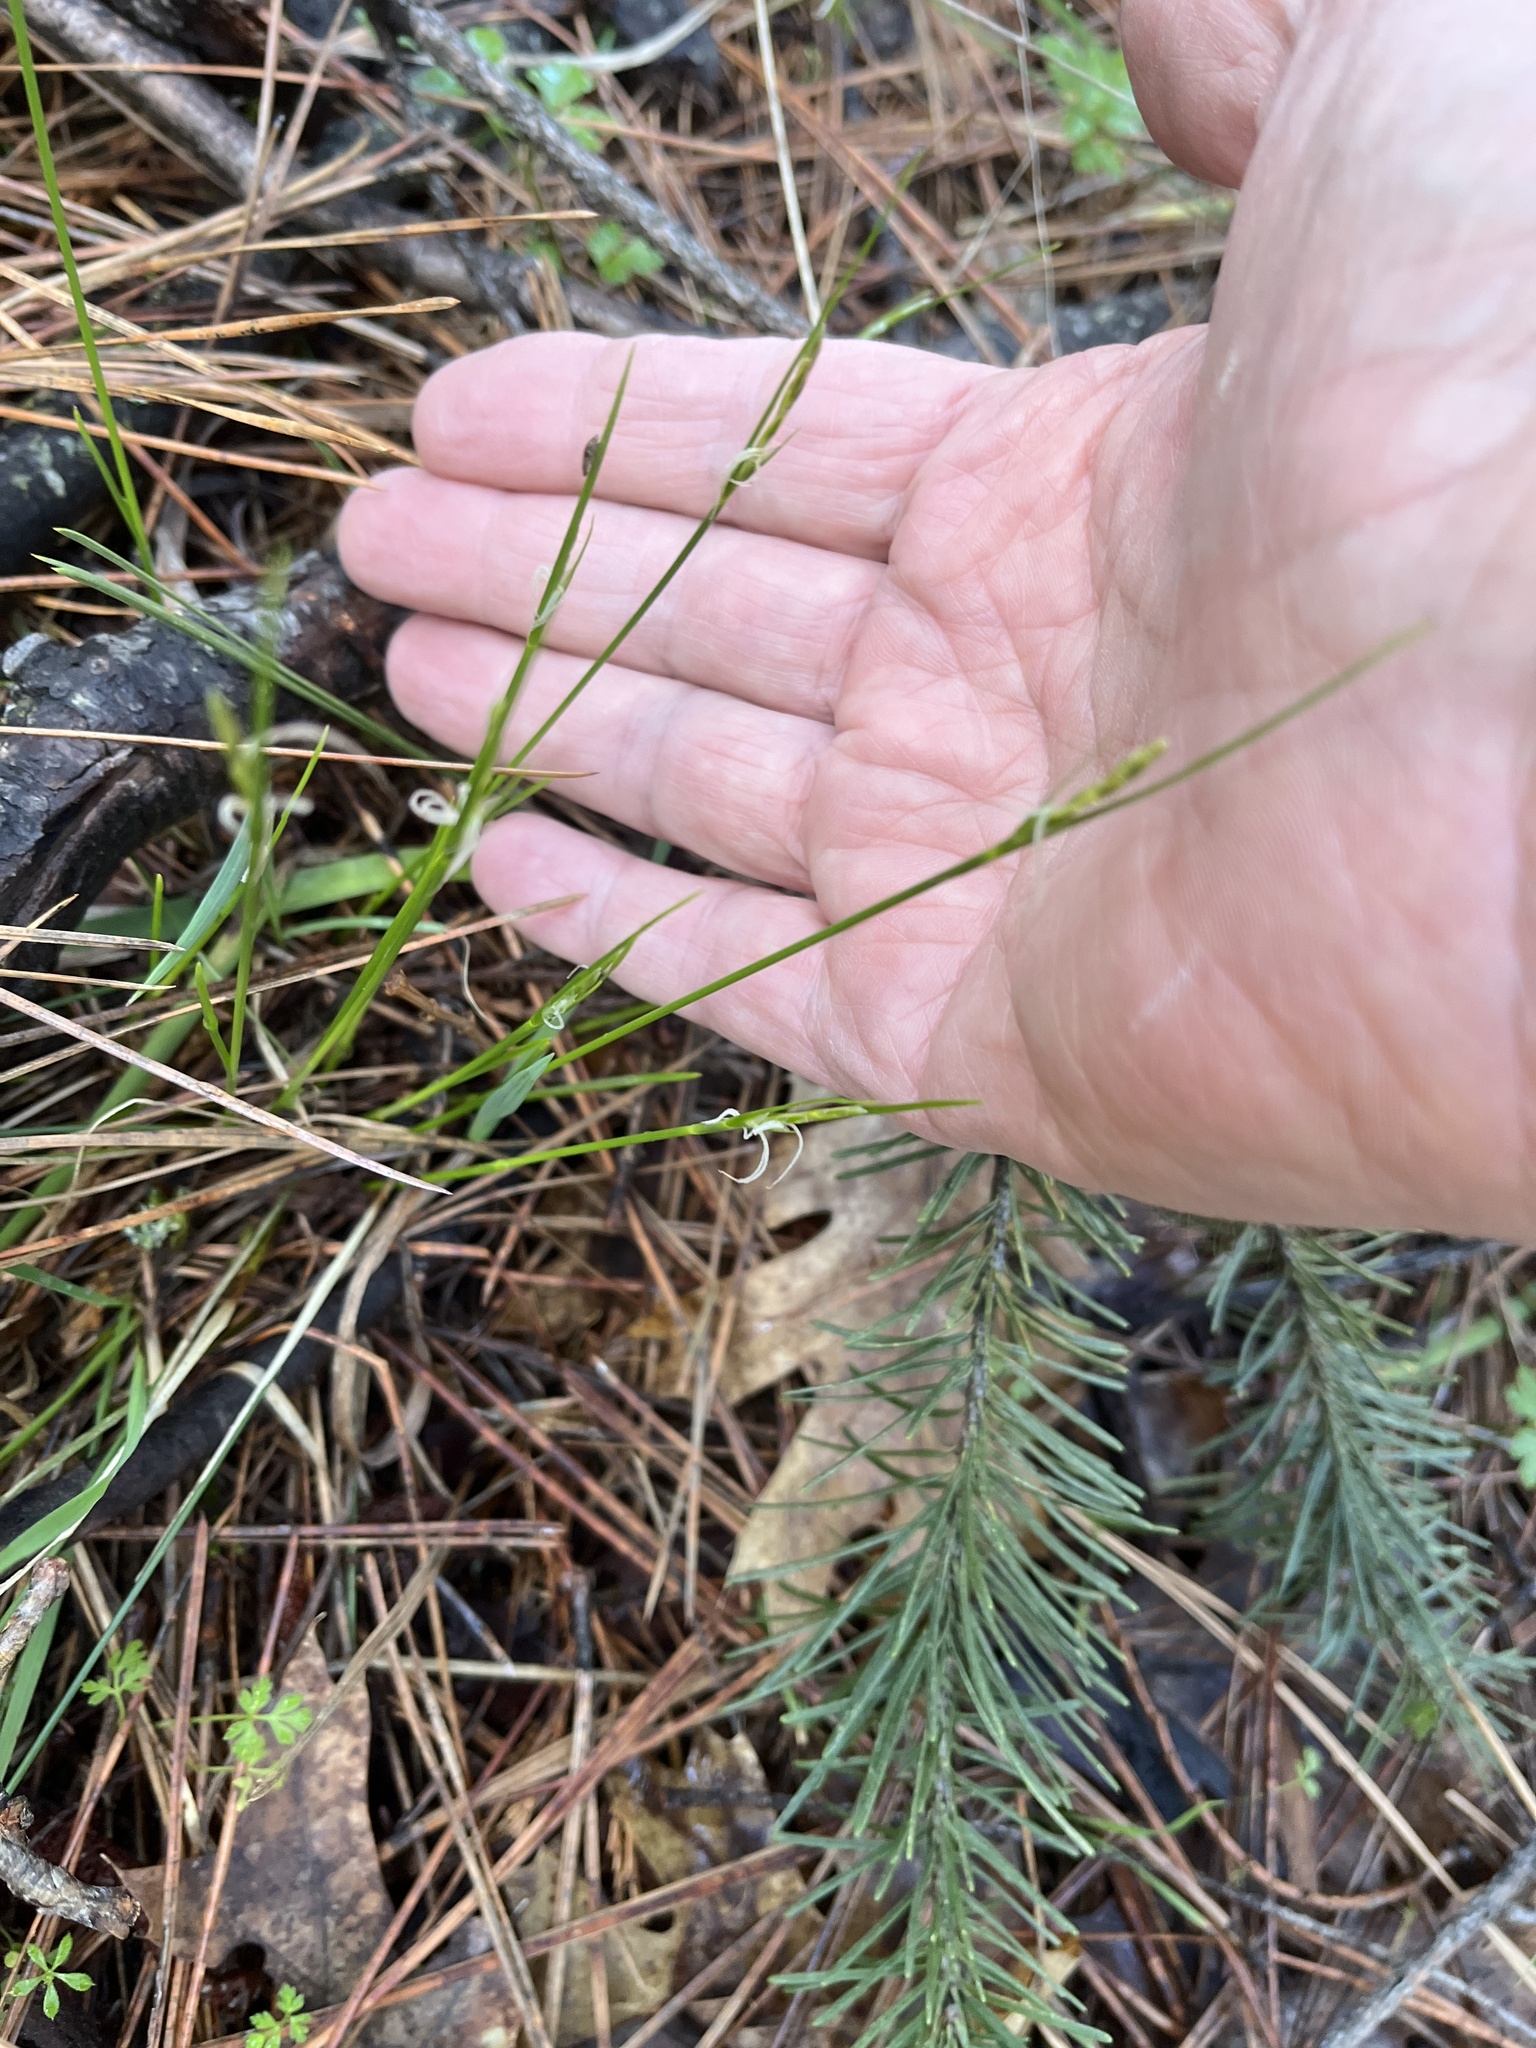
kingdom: Plantae
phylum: Tracheophyta
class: Liliopsida
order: Poales
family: Cyperaceae
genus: Carex
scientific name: Carex multicaulis
